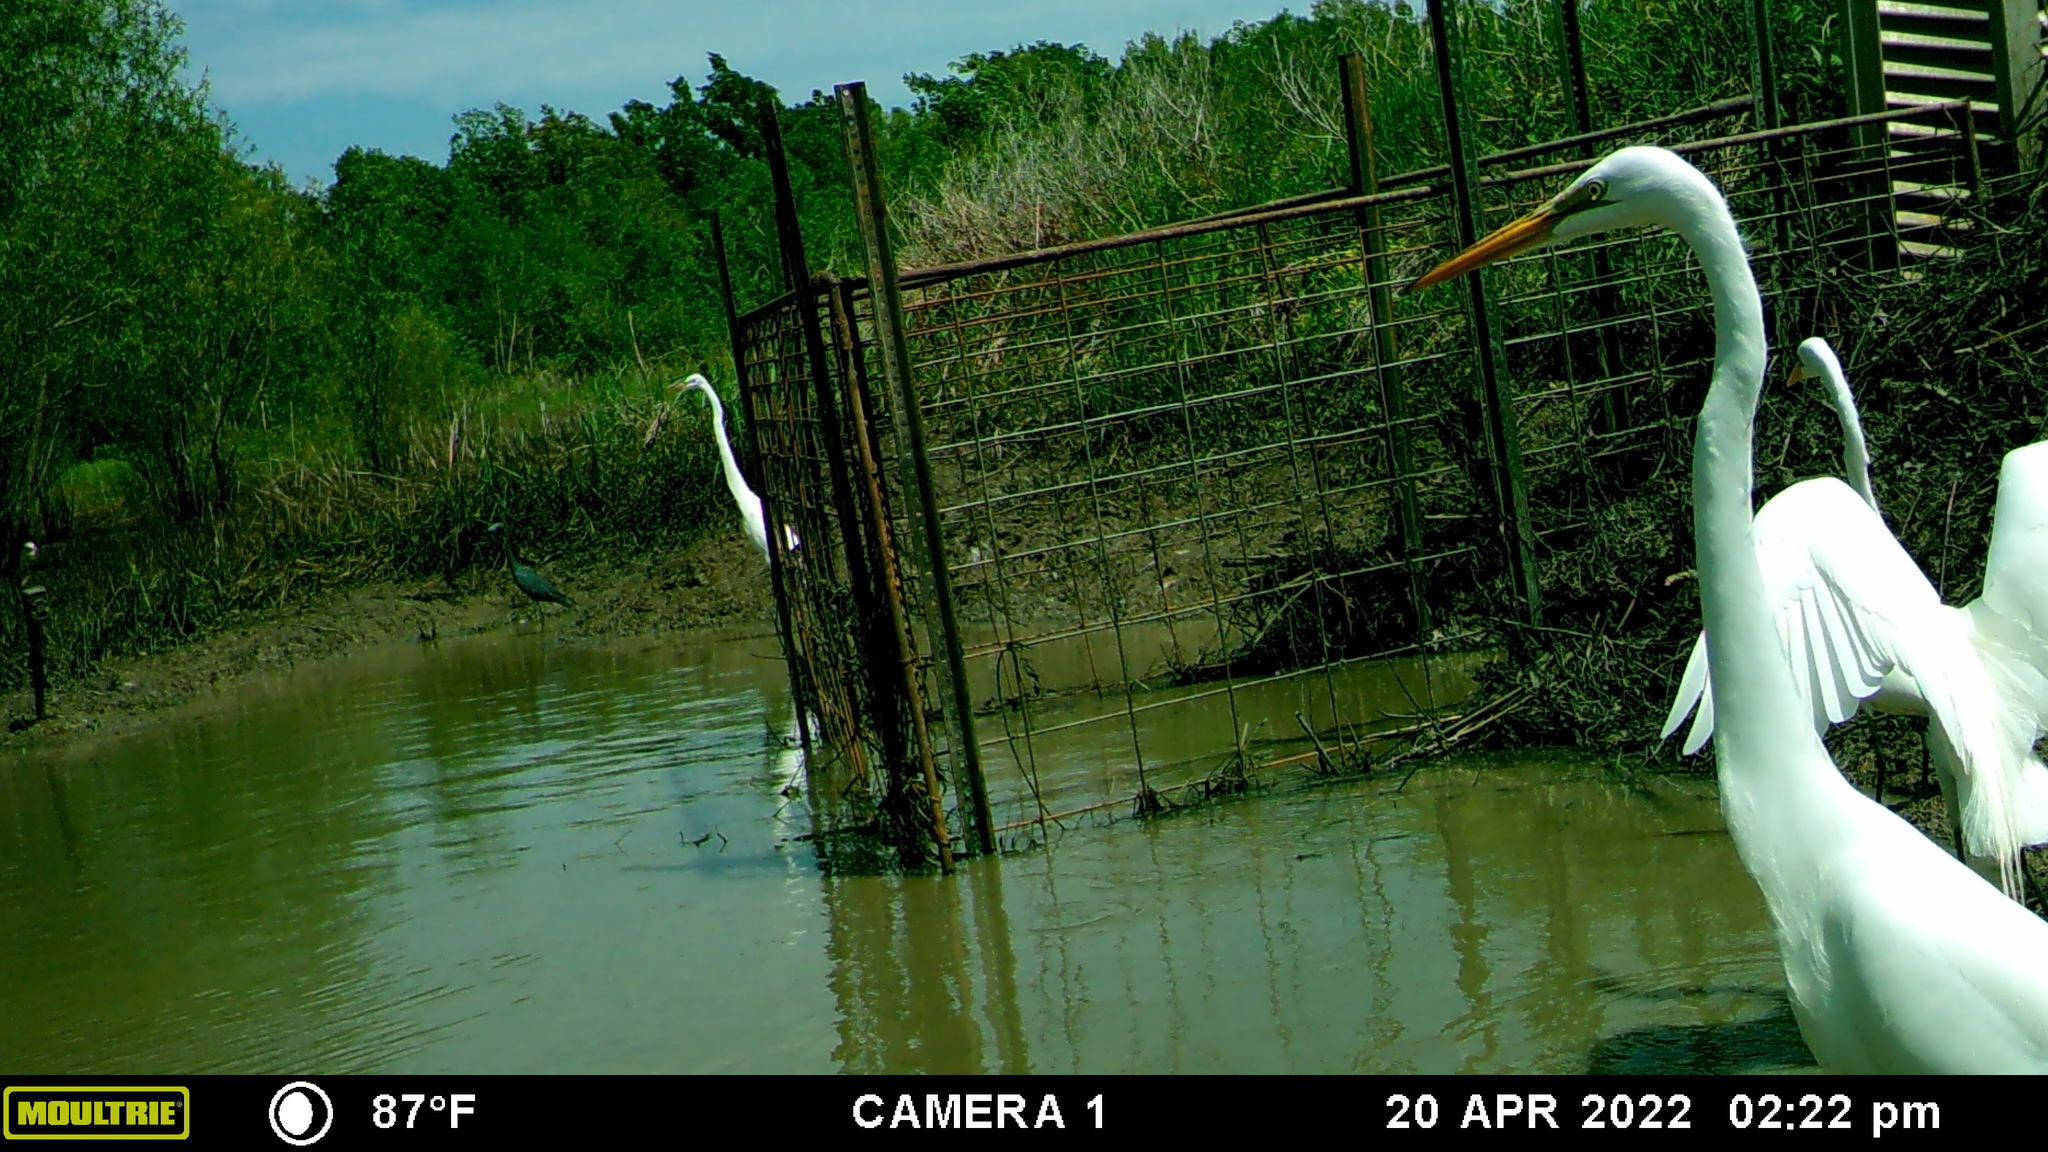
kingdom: Animalia
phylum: Chordata
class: Aves
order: Pelecaniformes
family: Ardeidae
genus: Ardea
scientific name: Ardea alba
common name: Great egret
